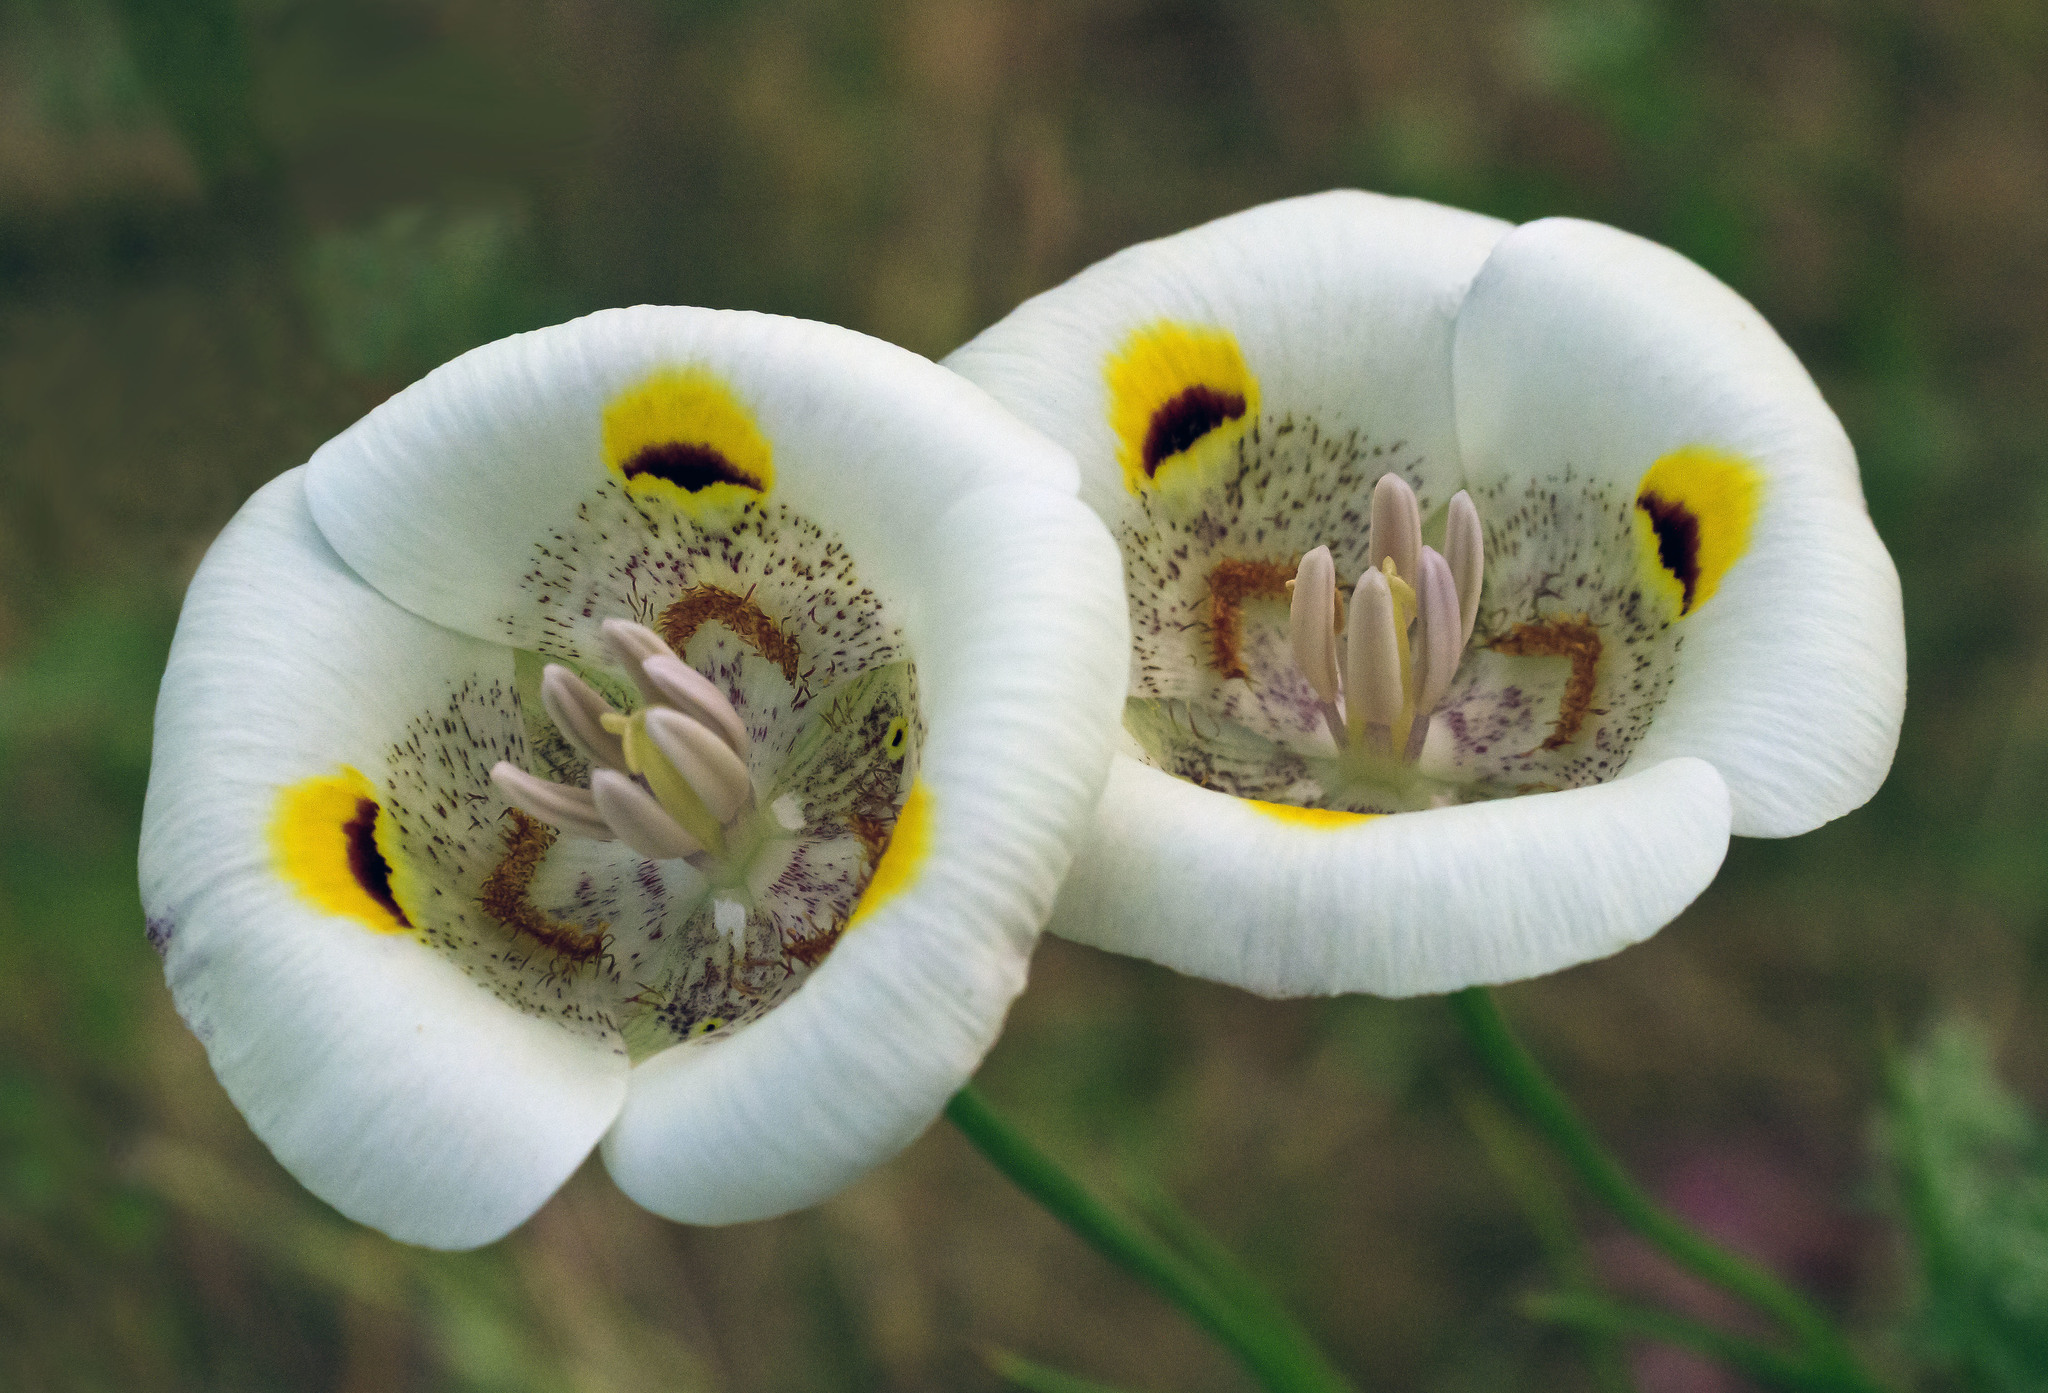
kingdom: Plantae
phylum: Tracheophyta
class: Liliopsida
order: Liliales
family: Liliaceae
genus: Calochortus
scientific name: Calochortus superbus
